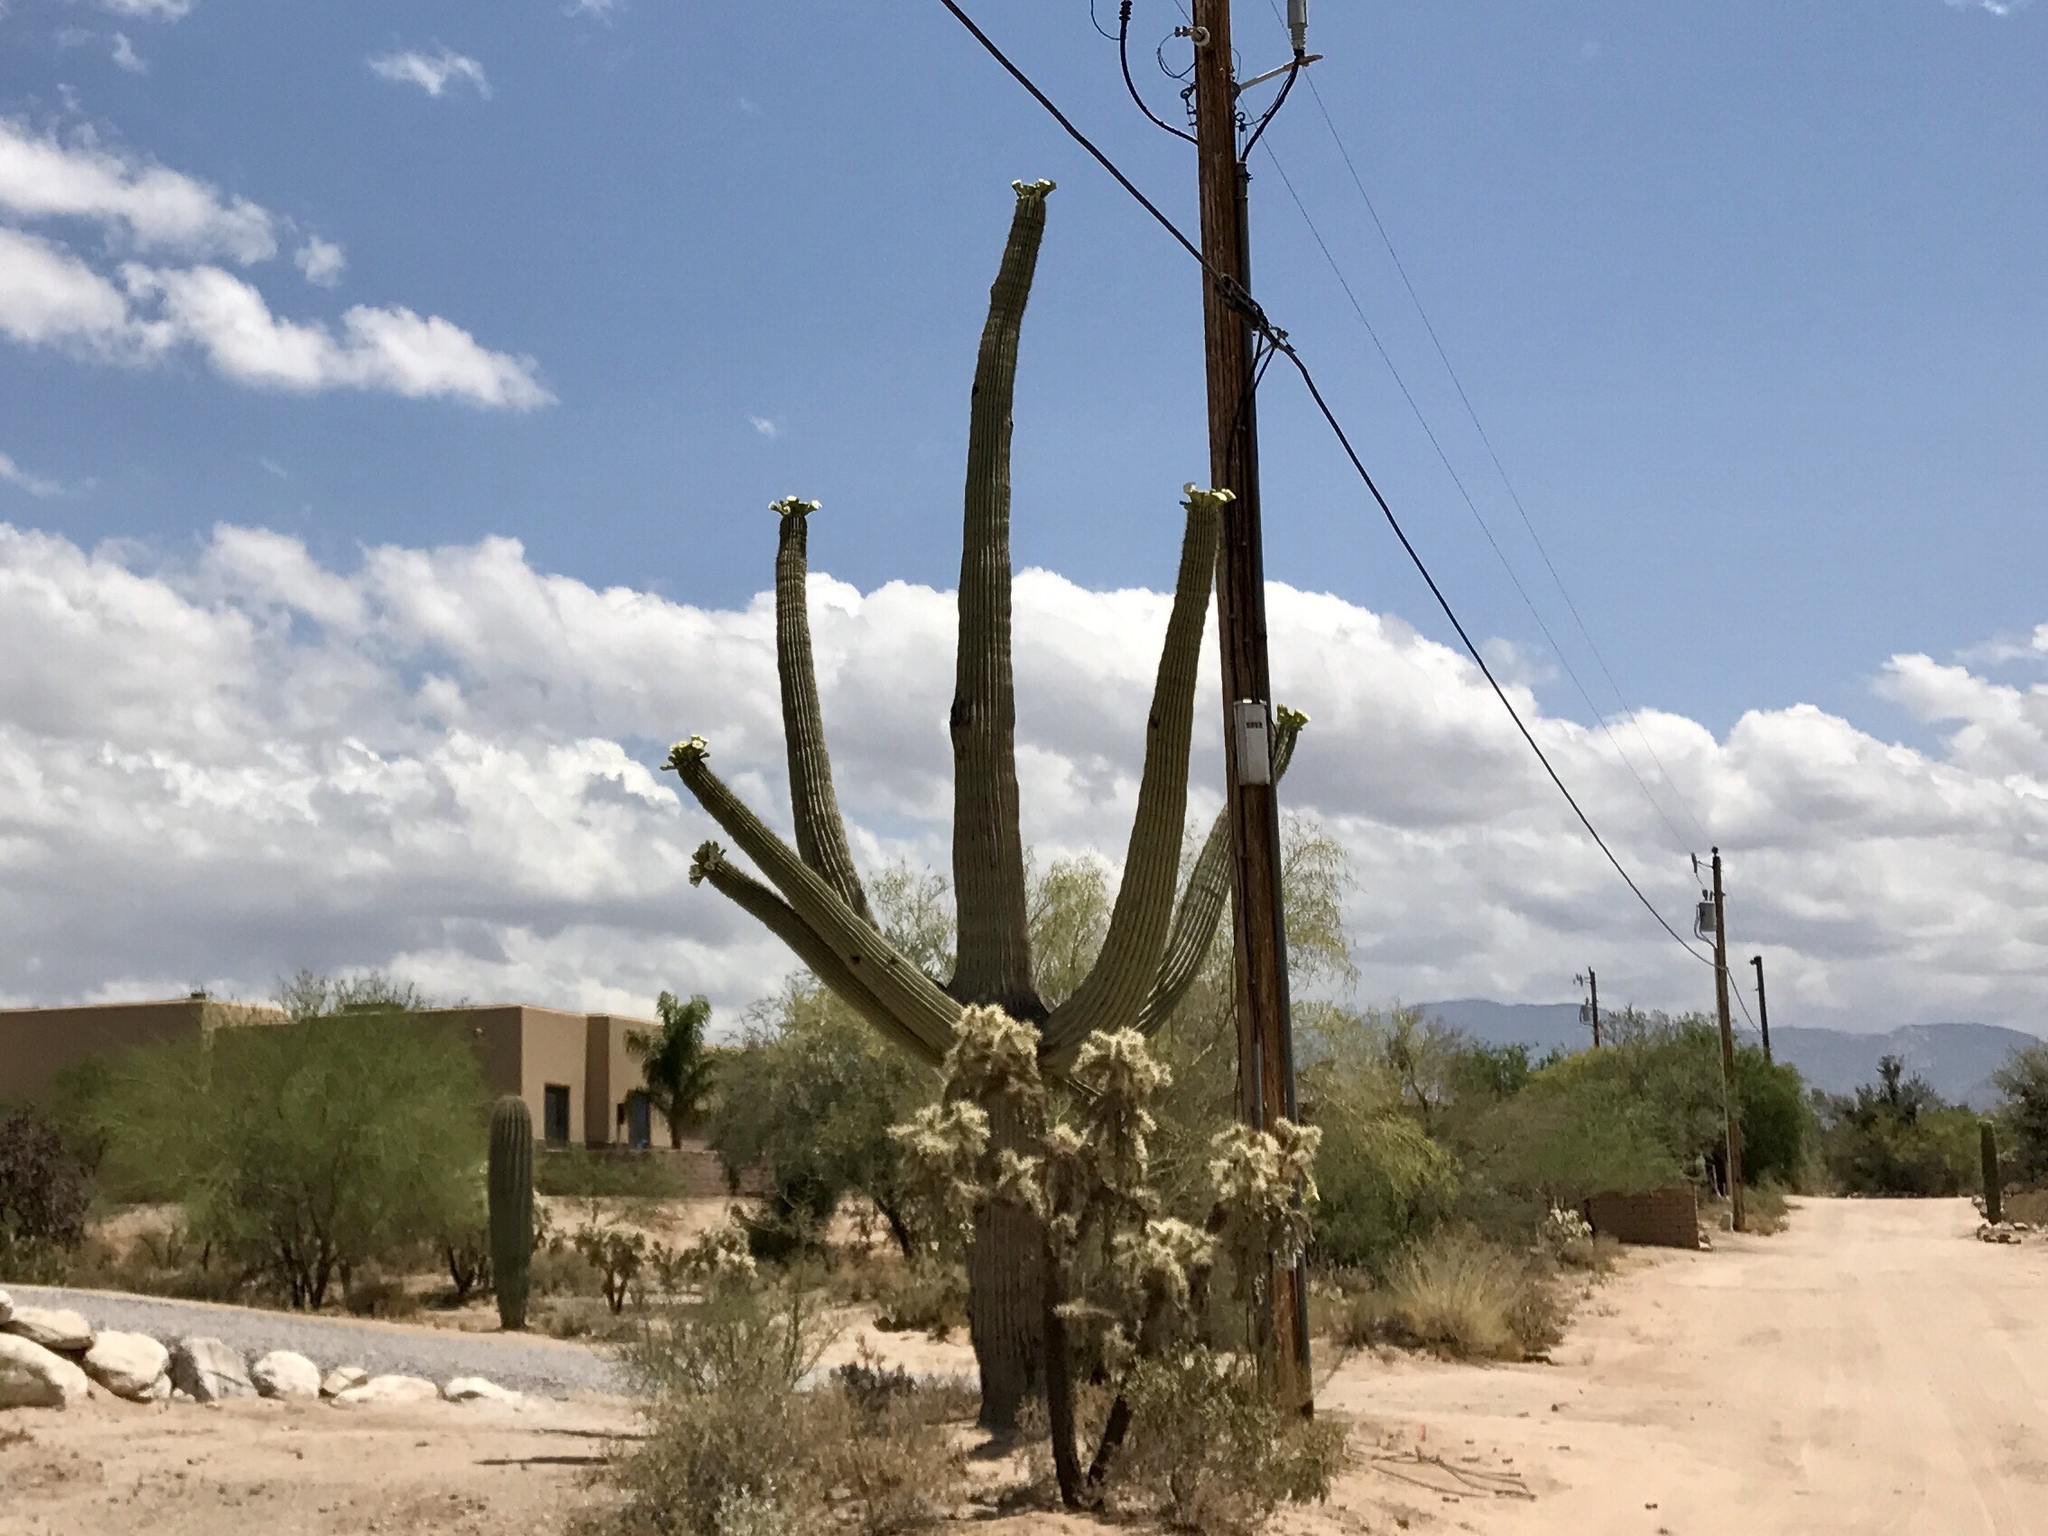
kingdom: Plantae
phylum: Tracheophyta
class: Magnoliopsida
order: Caryophyllales
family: Cactaceae
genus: Carnegiea
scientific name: Carnegiea gigantea
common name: Saguaro
